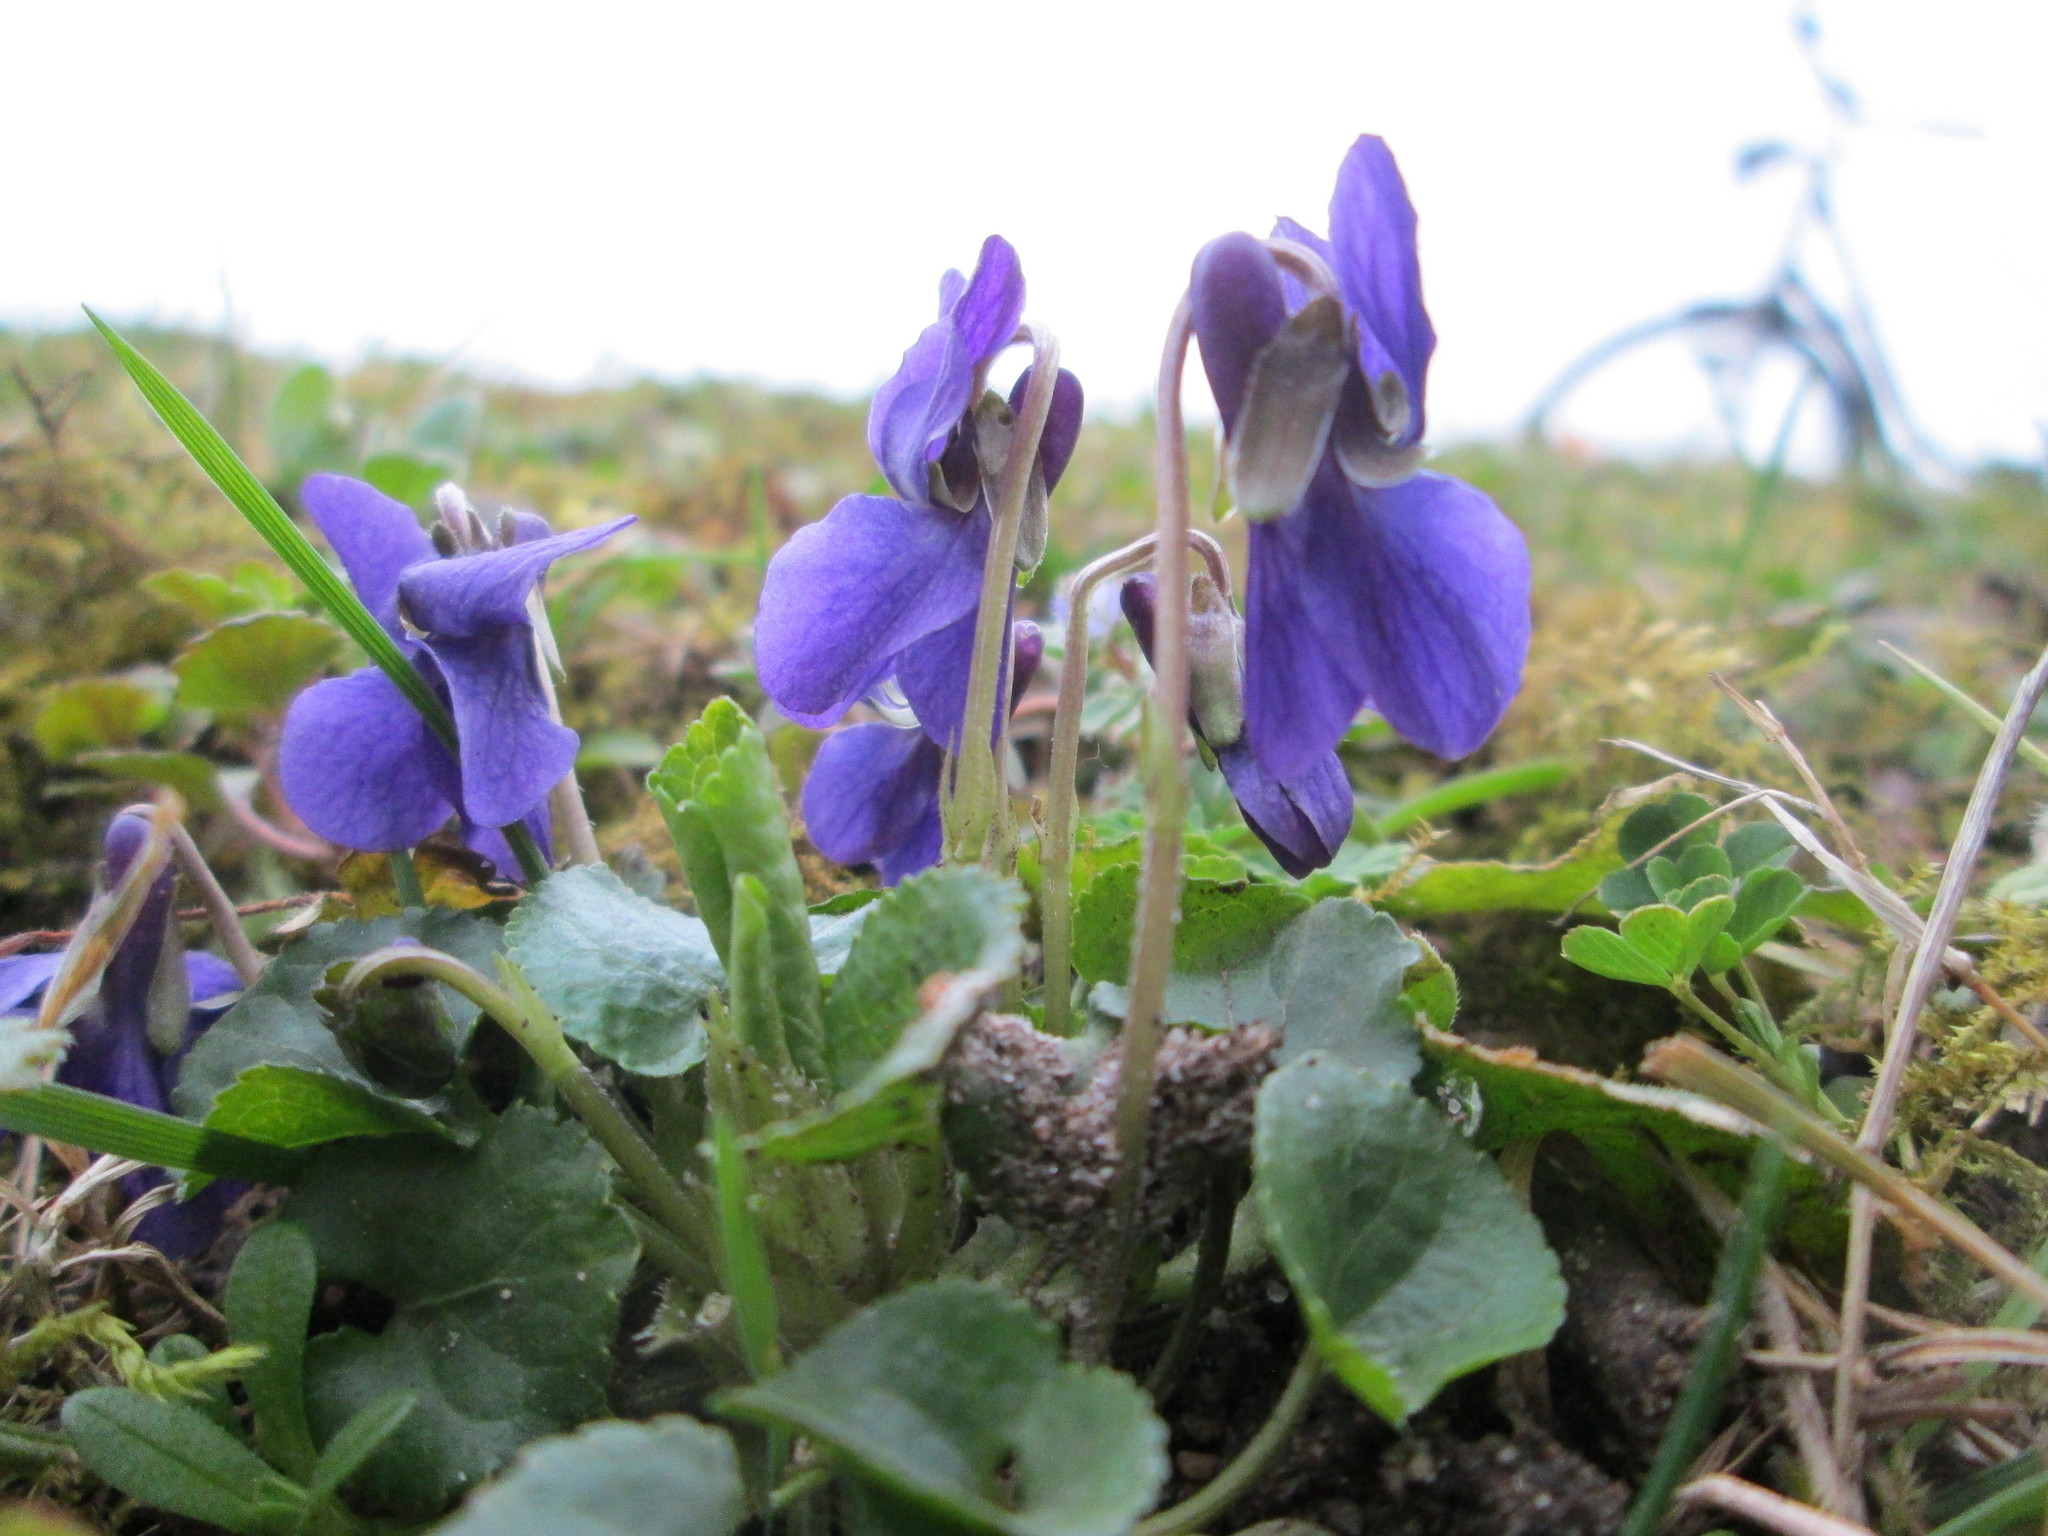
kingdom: Plantae
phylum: Tracheophyta
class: Magnoliopsida
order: Malpighiales
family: Violaceae
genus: Viola
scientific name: Viola odorata
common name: Sweet violet
